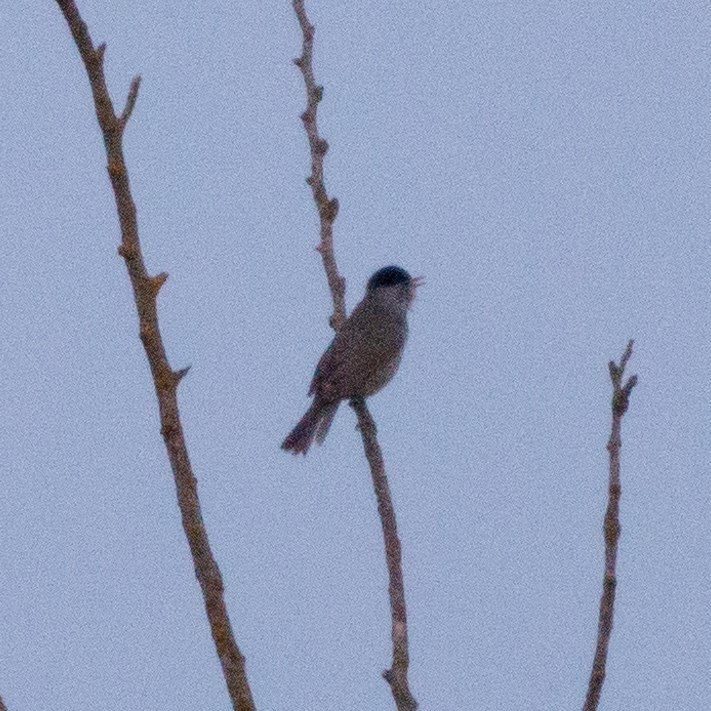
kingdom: Animalia
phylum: Chordata
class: Aves
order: Passeriformes
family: Sylviidae
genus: Sylvia
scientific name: Sylvia atricapilla
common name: Eurasian blackcap
